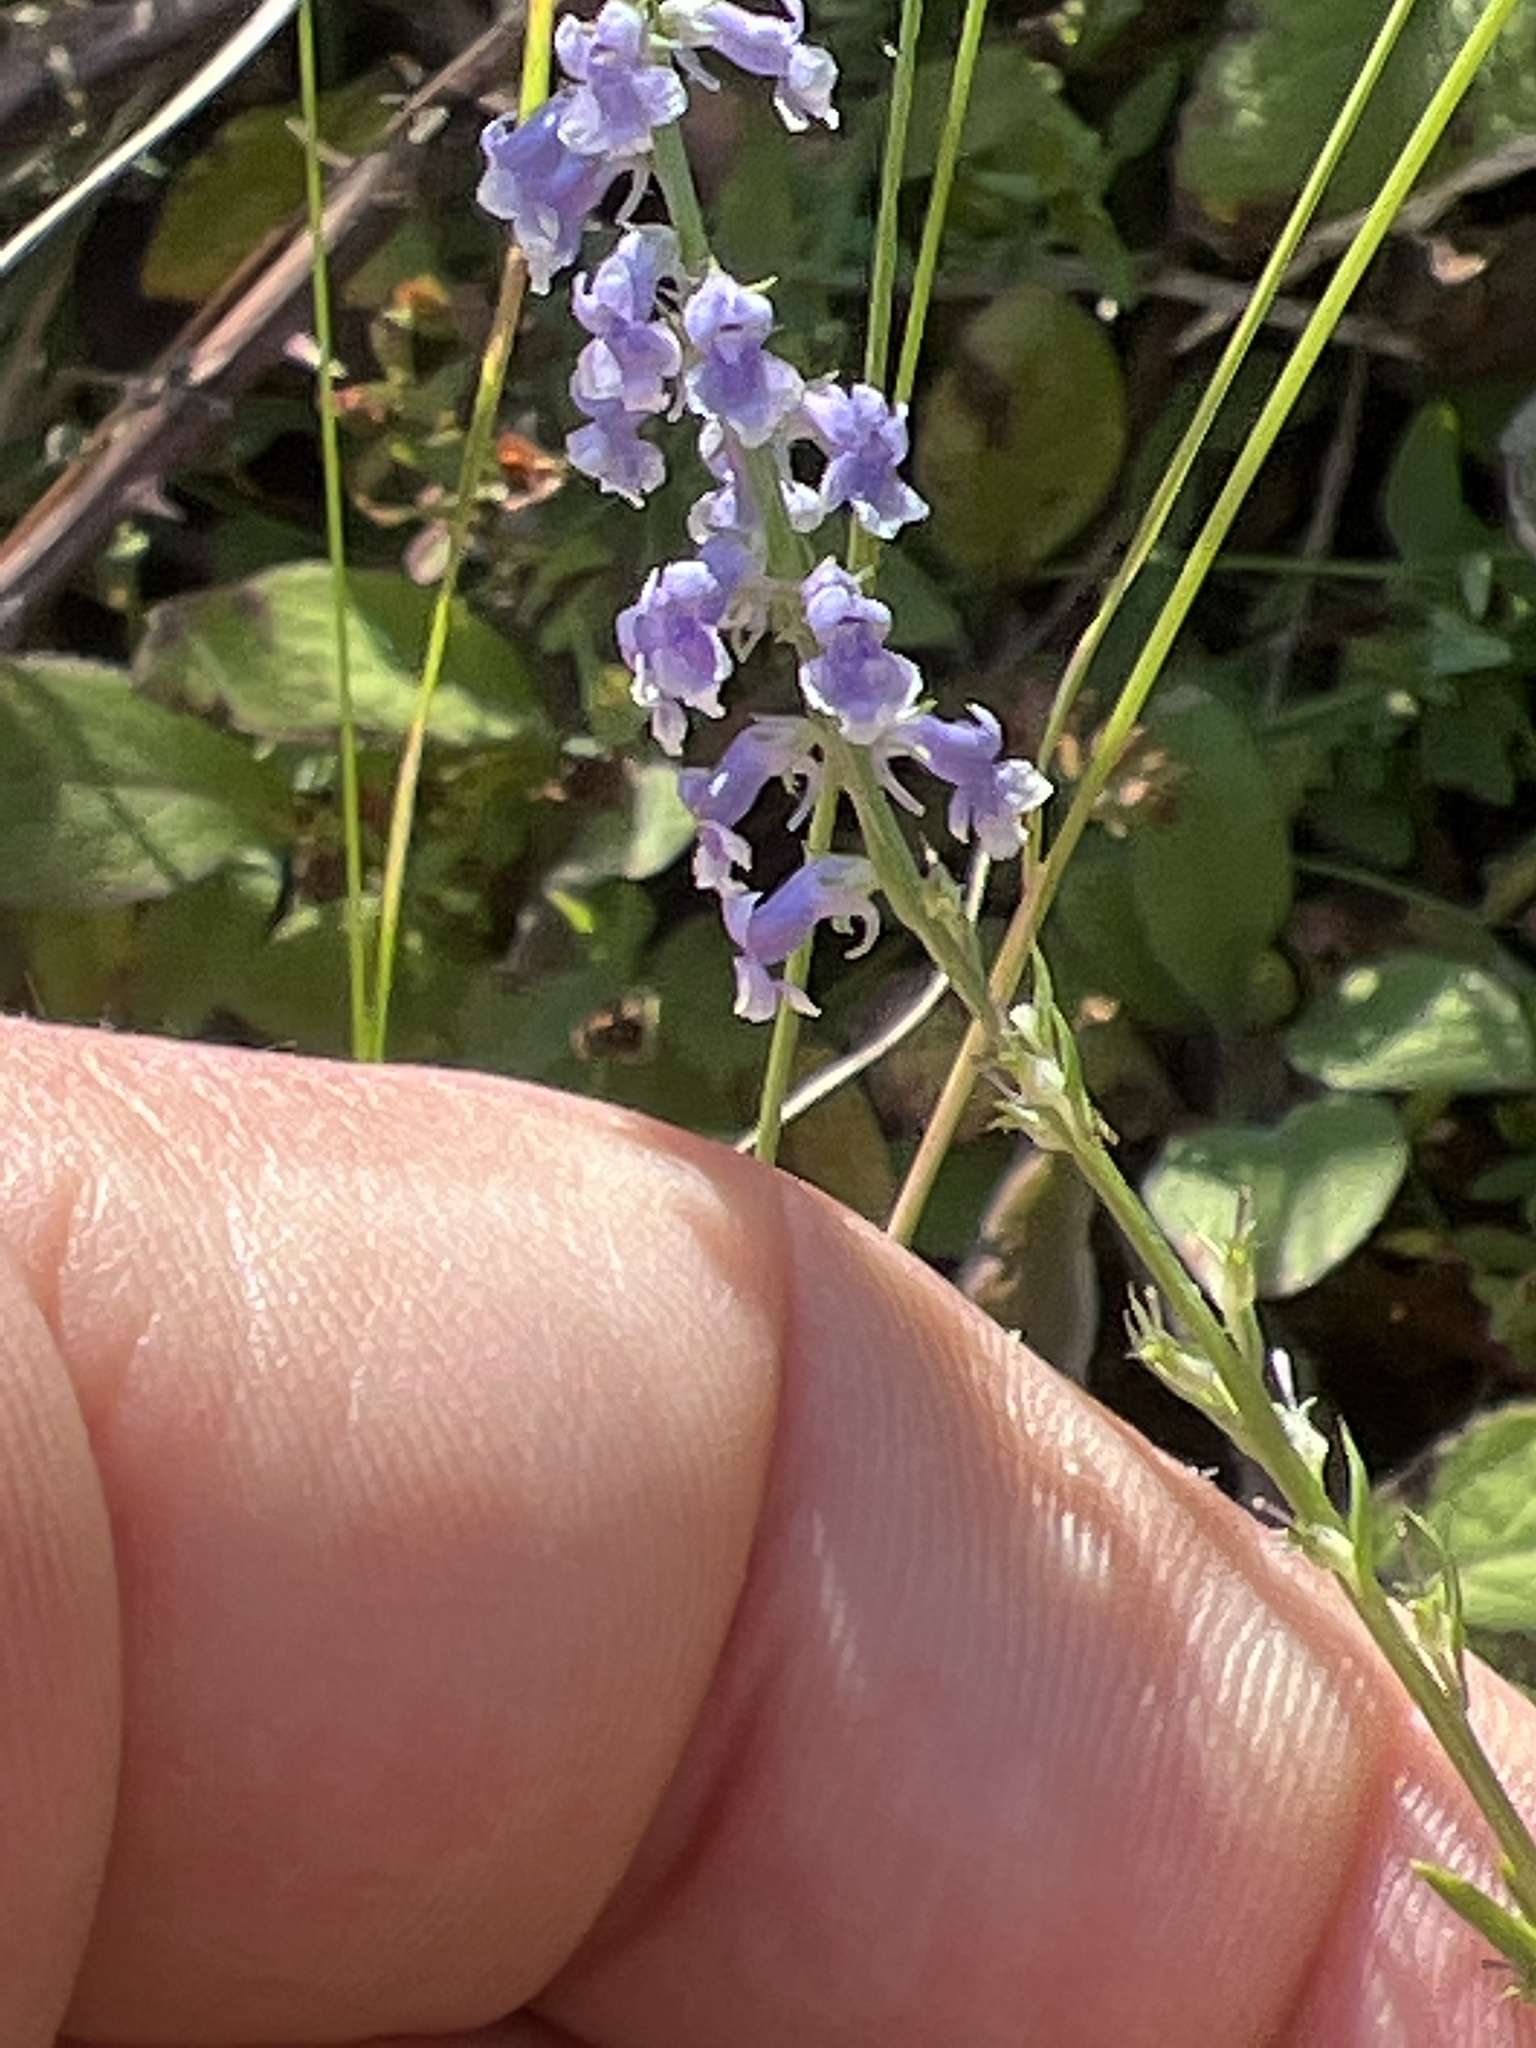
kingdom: Plantae
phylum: Tracheophyta
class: Magnoliopsida
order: Lamiales
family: Plantaginaceae
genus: Anarrhinum
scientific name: Anarrhinum bellidifolium
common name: Daisy-leaved toadflax
